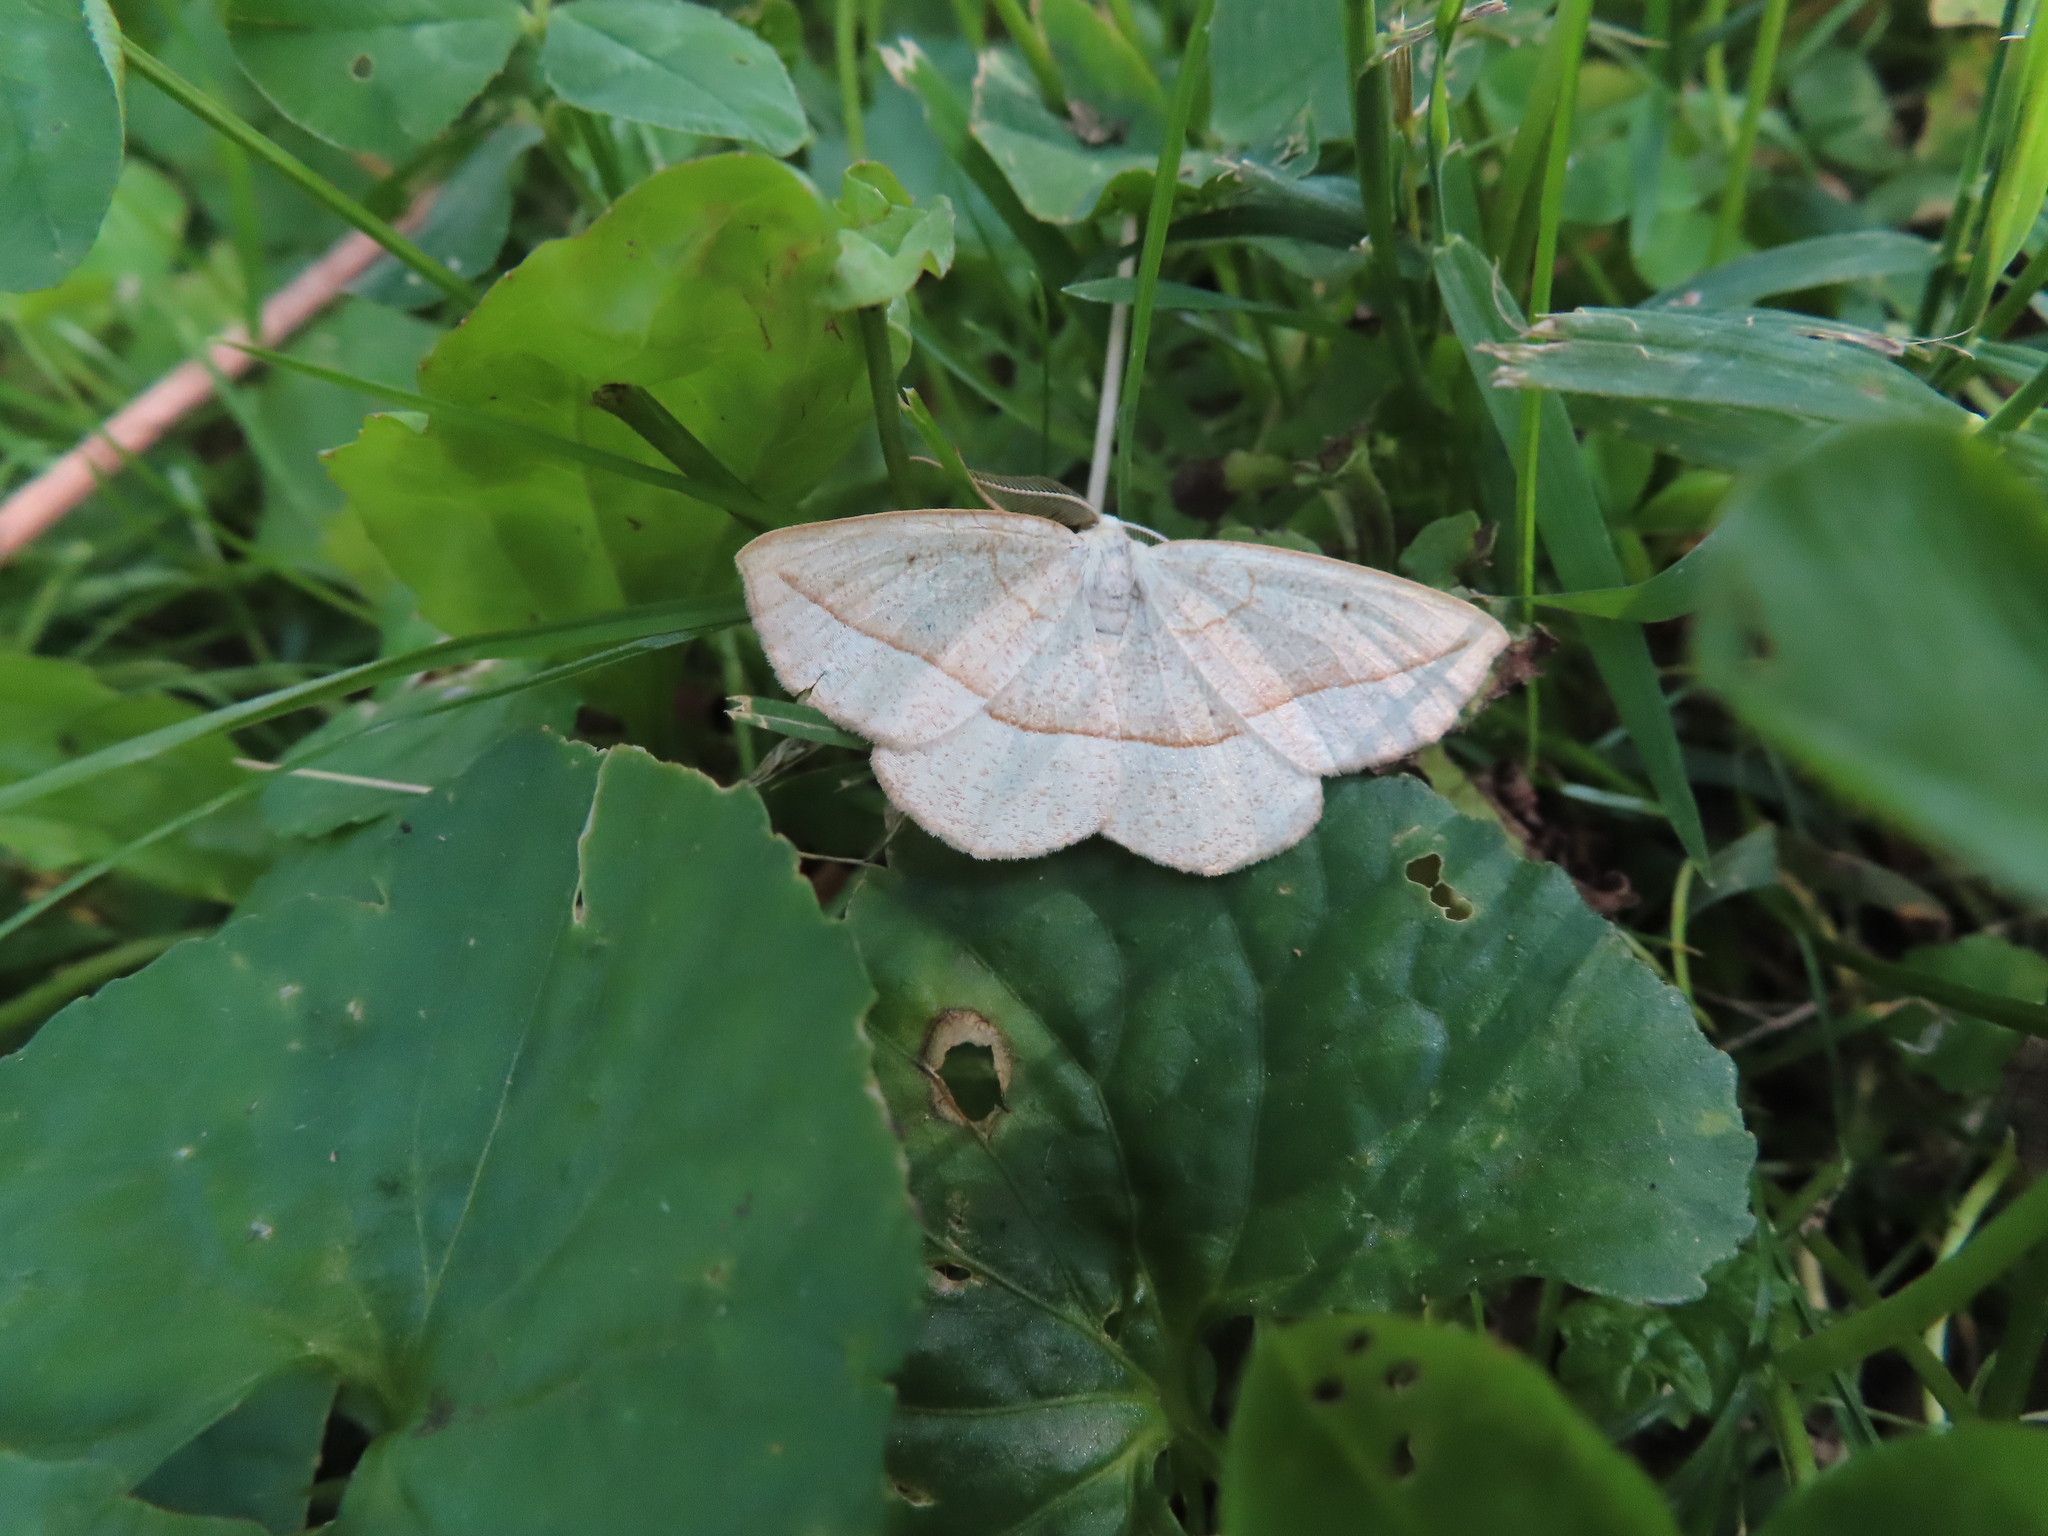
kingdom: Animalia
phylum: Arthropoda
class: Insecta
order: Lepidoptera
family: Geometridae
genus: Eusarca
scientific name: Eusarca confusaria
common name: Confused eusarca
